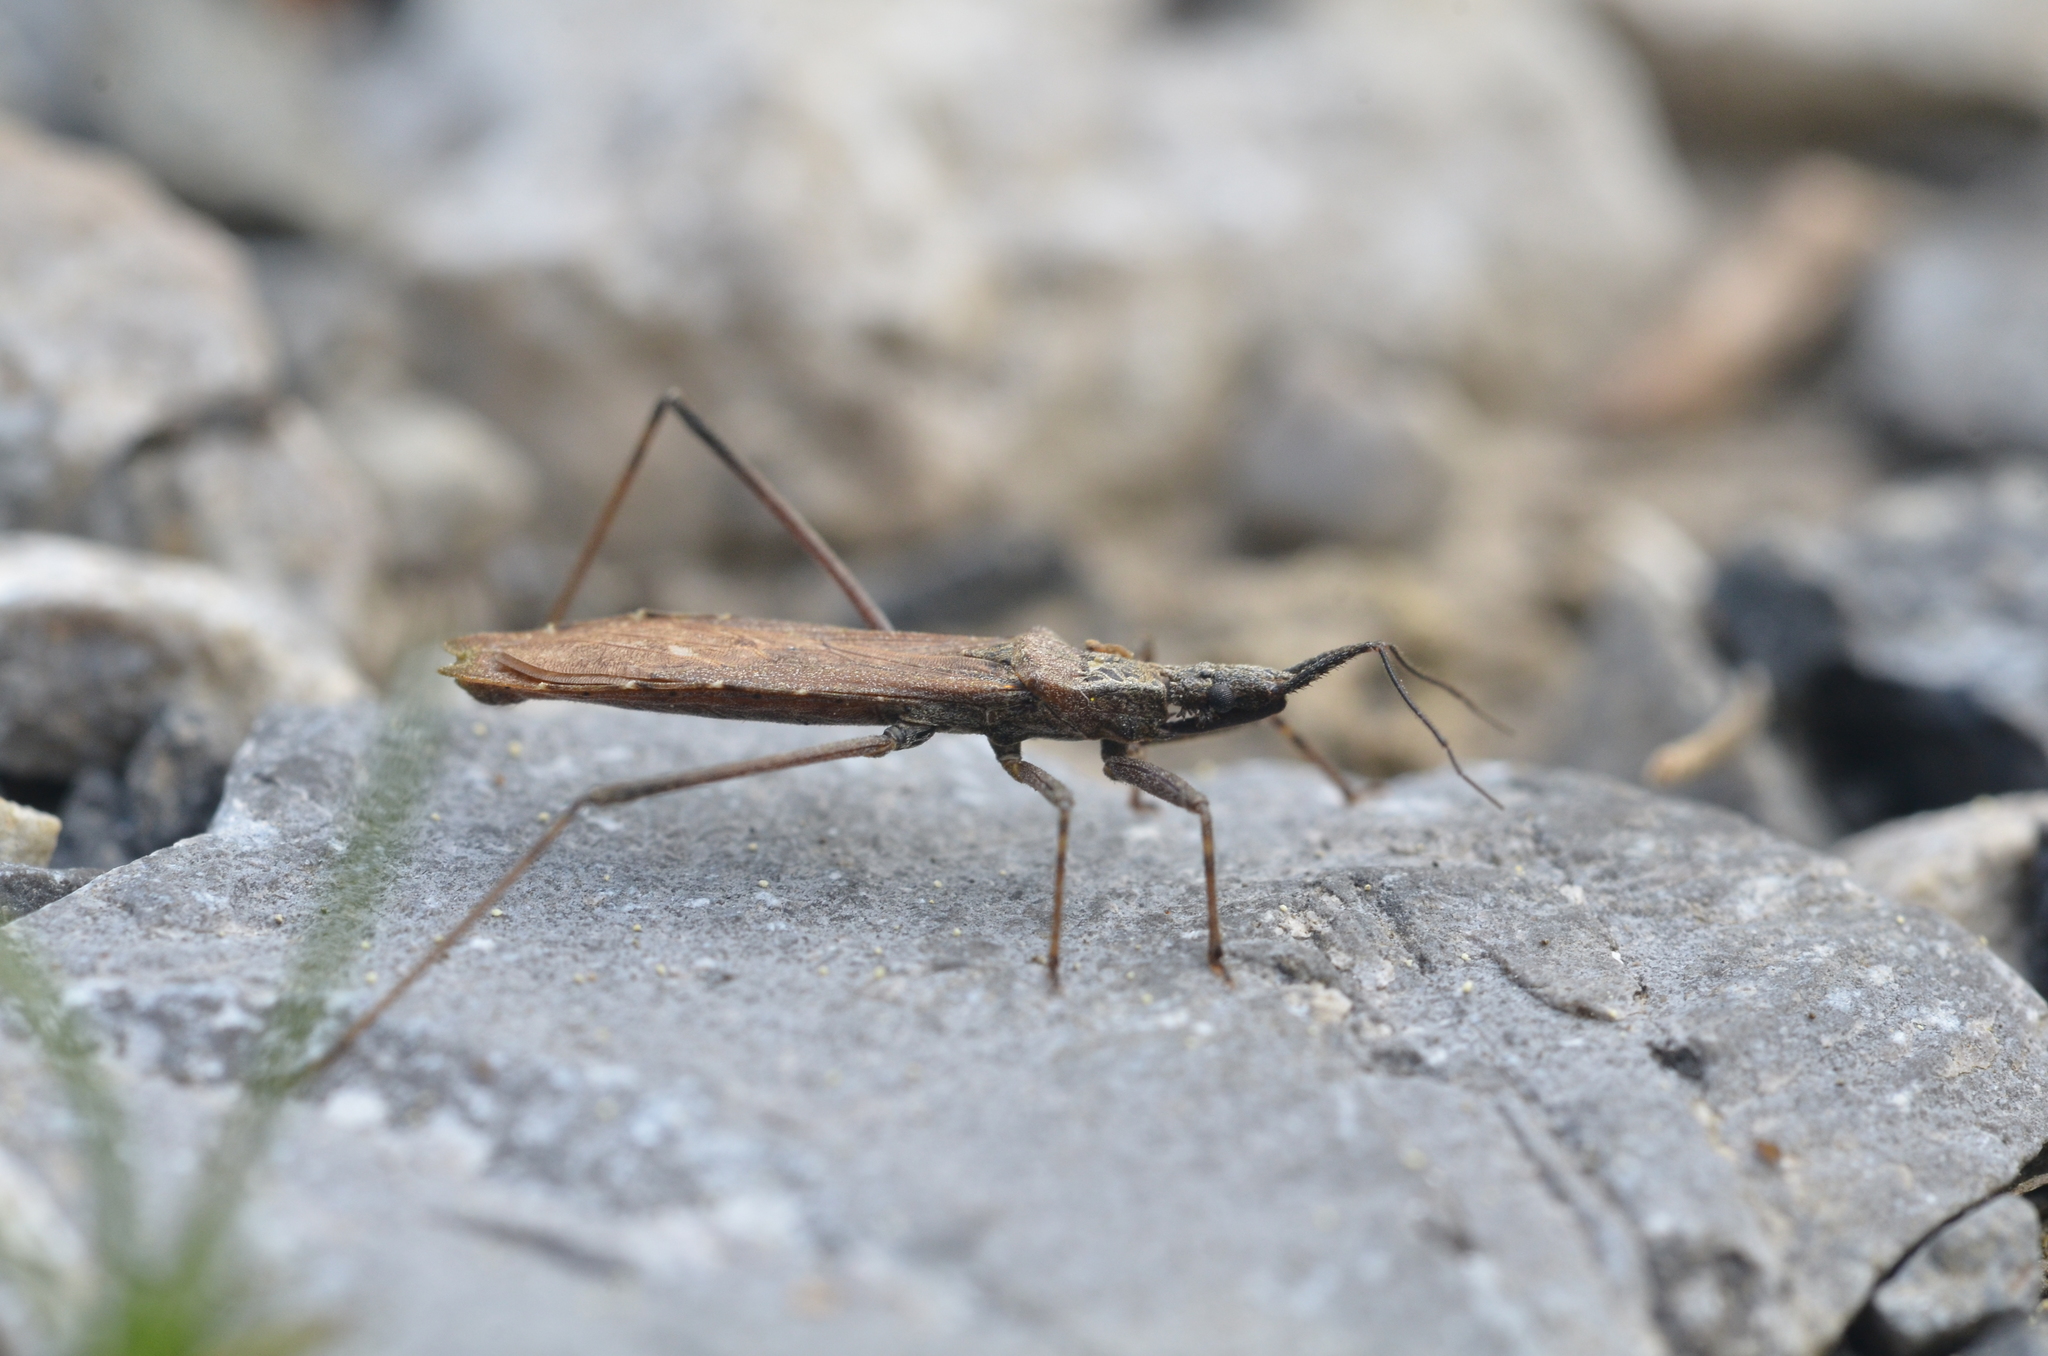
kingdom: Animalia
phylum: Arthropoda
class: Insecta
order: Hemiptera
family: Reduviidae
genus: Pygolampis
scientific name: Pygolampis bidentata
